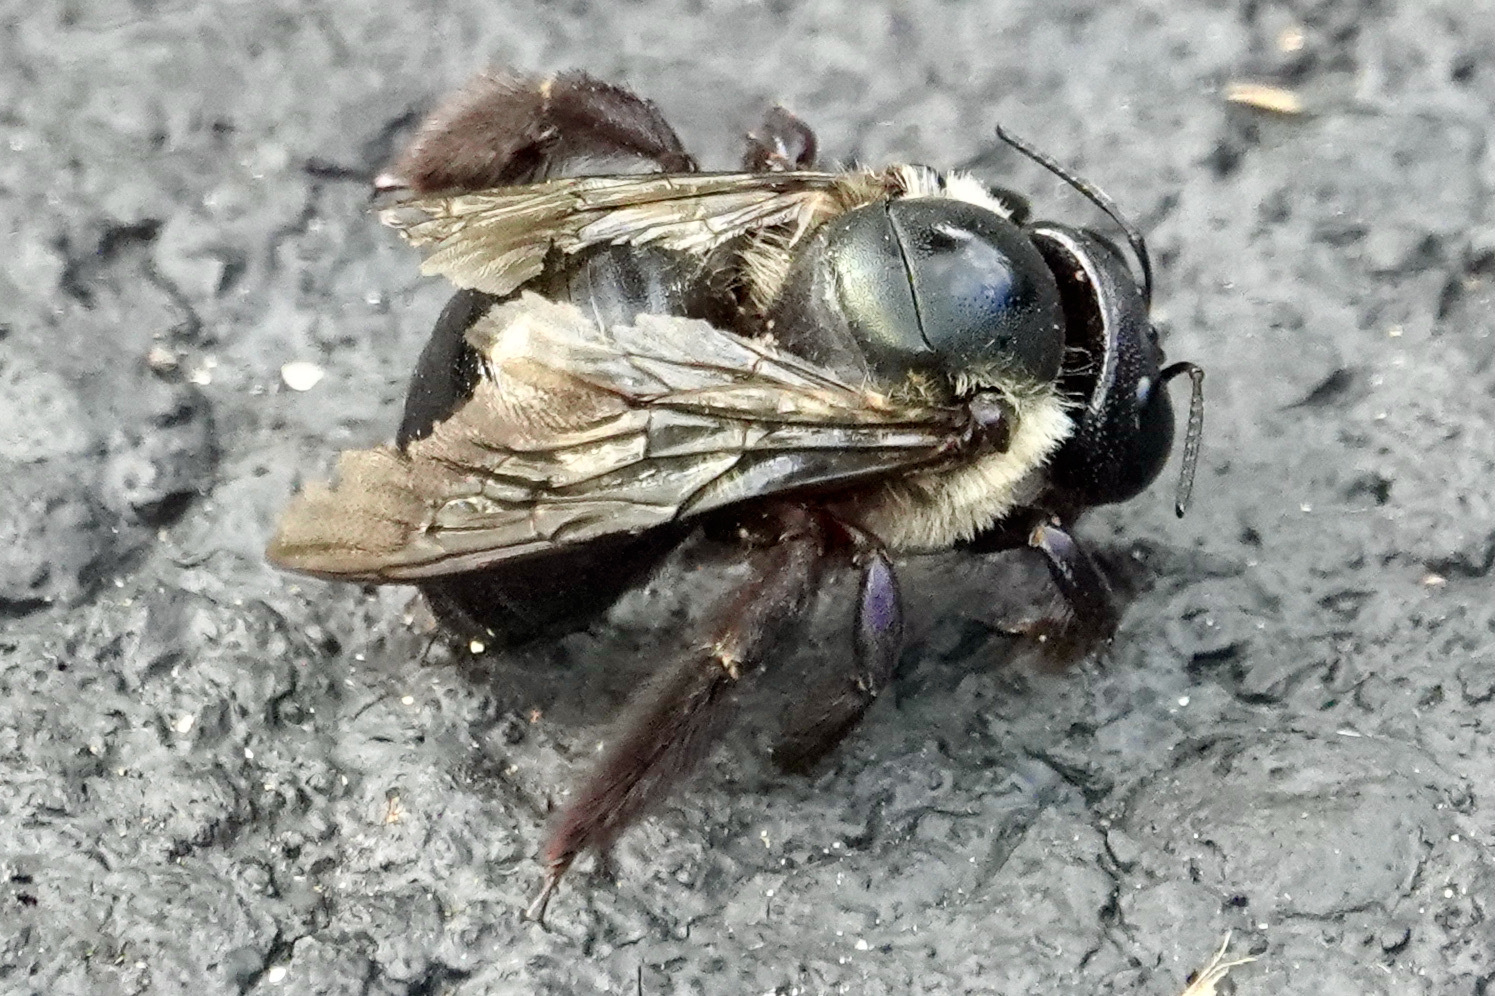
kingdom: Animalia
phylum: Arthropoda
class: Insecta
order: Hymenoptera
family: Apidae
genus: Xylocopa
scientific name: Xylocopa virginica
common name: Carpenter bee
